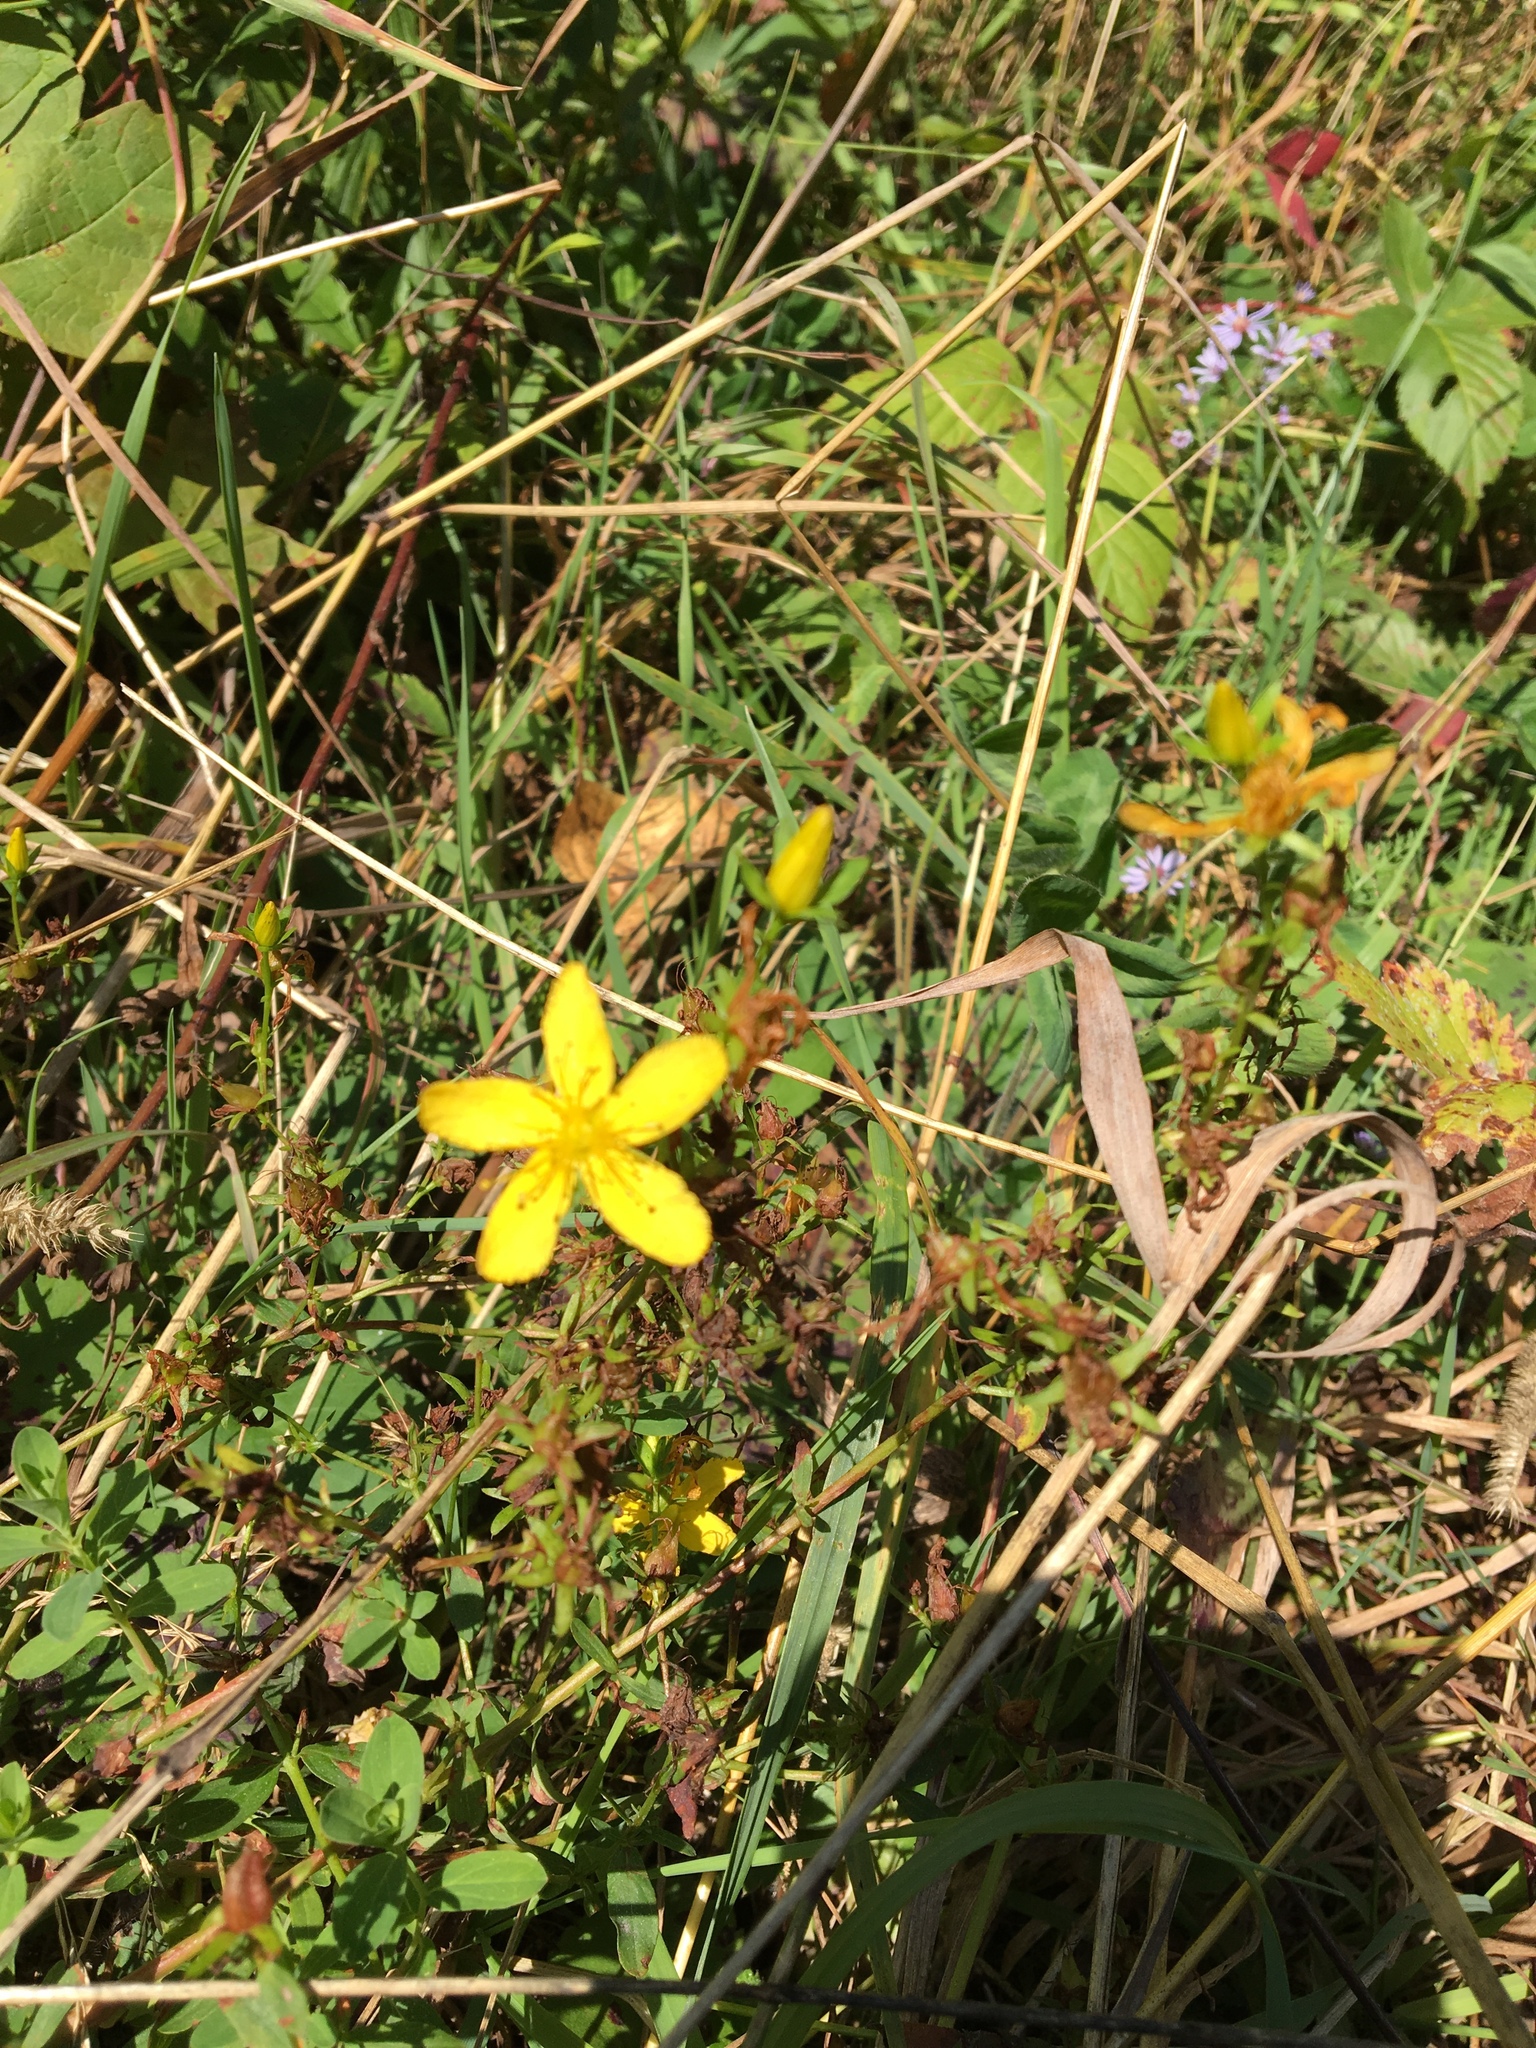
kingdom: Plantae
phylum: Tracheophyta
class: Magnoliopsida
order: Malpighiales
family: Hypericaceae
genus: Hypericum
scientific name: Hypericum perforatum
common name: Common st. johnswort
